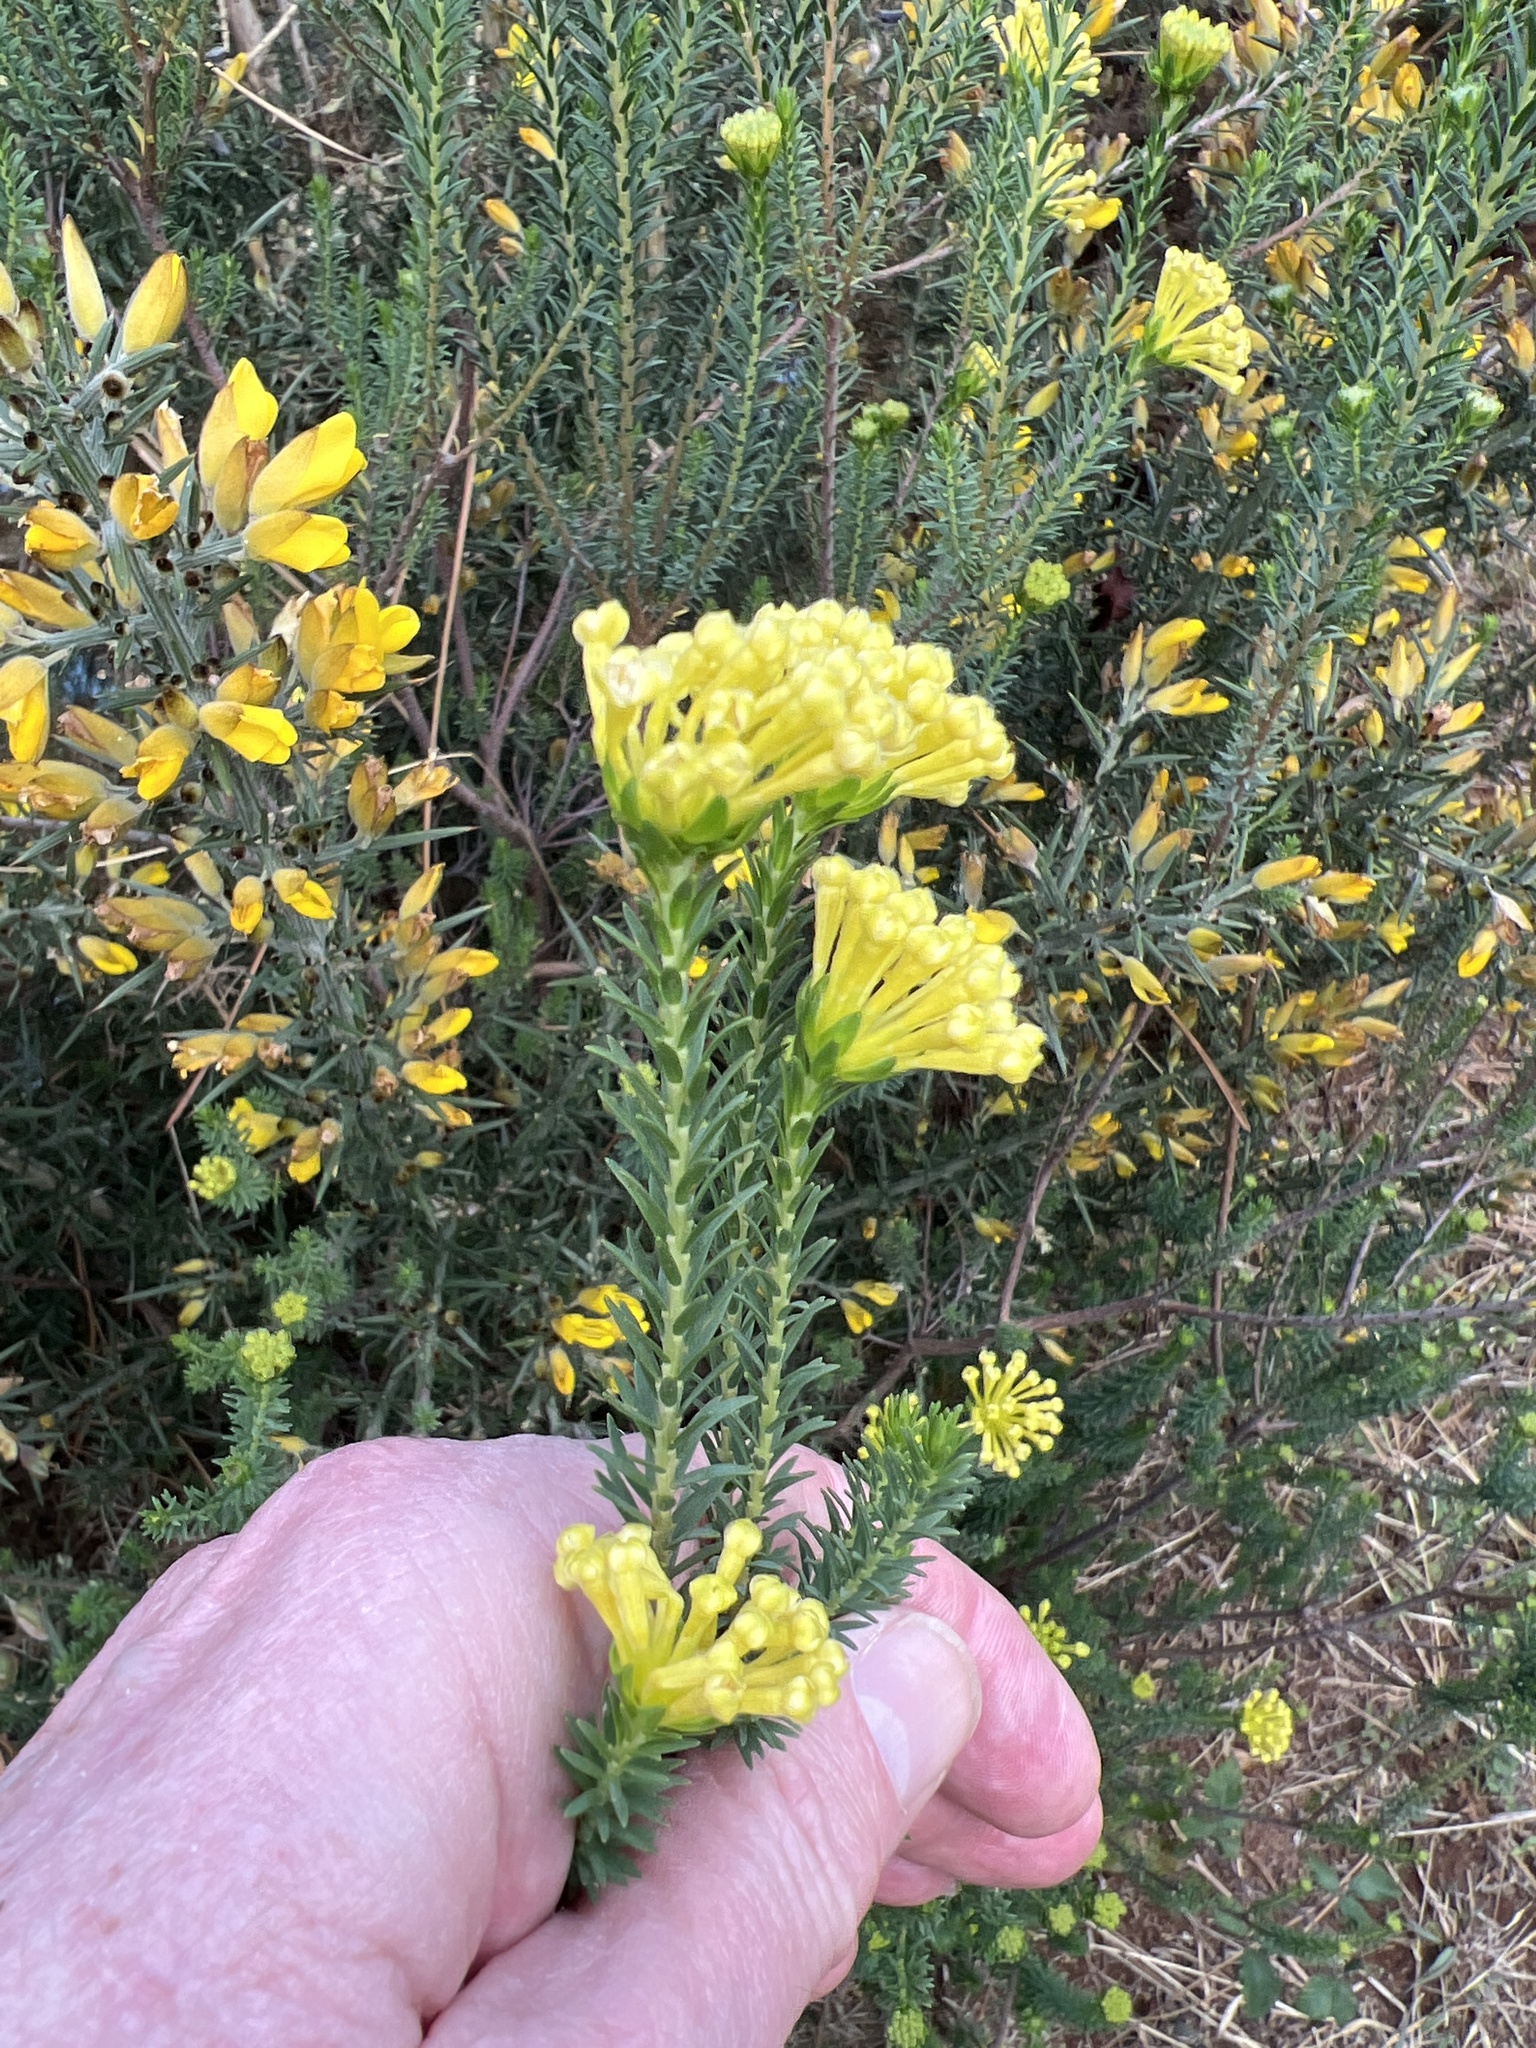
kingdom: Plantae
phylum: Tracheophyta
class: Magnoliopsida
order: Malvales
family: Thymelaeaceae
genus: Gnidia
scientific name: Gnidia squarrosa
